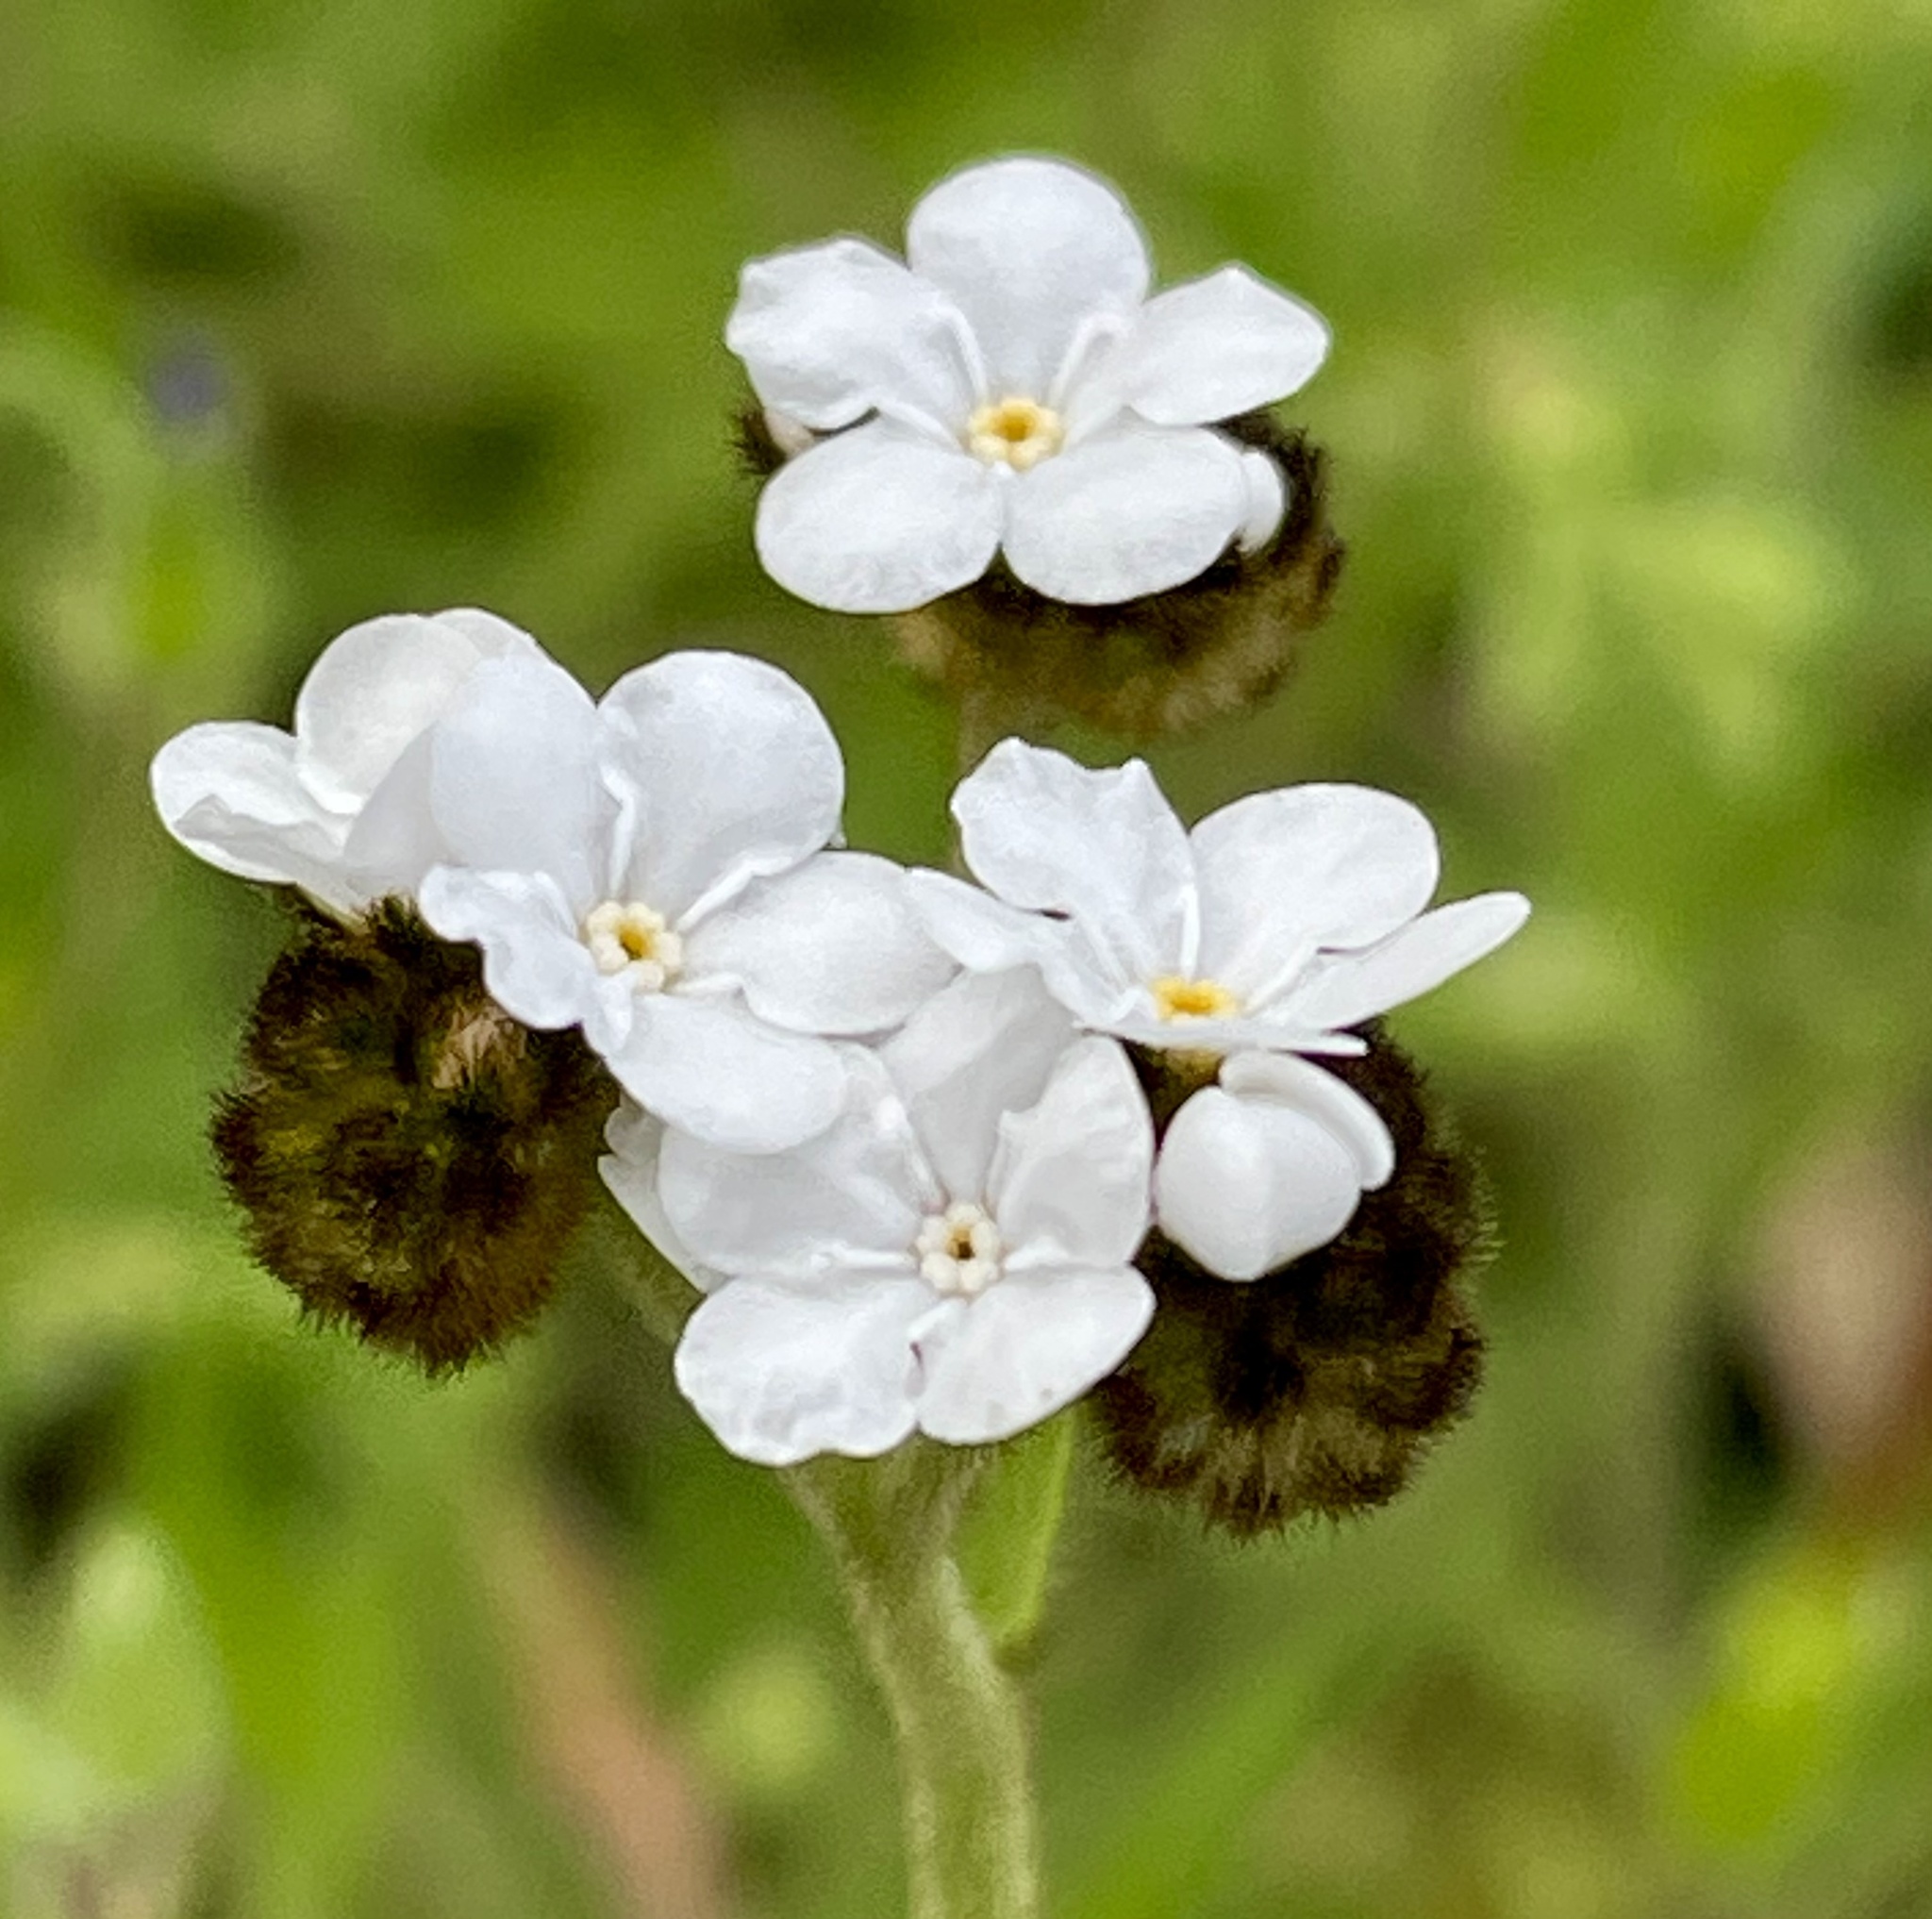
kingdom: Plantae
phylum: Tracheophyta
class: Magnoliopsida
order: Boraginales
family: Boraginaceae
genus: Plagiobothrys
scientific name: Plagiobothrys nothofulvus
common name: Popcorn-flower
